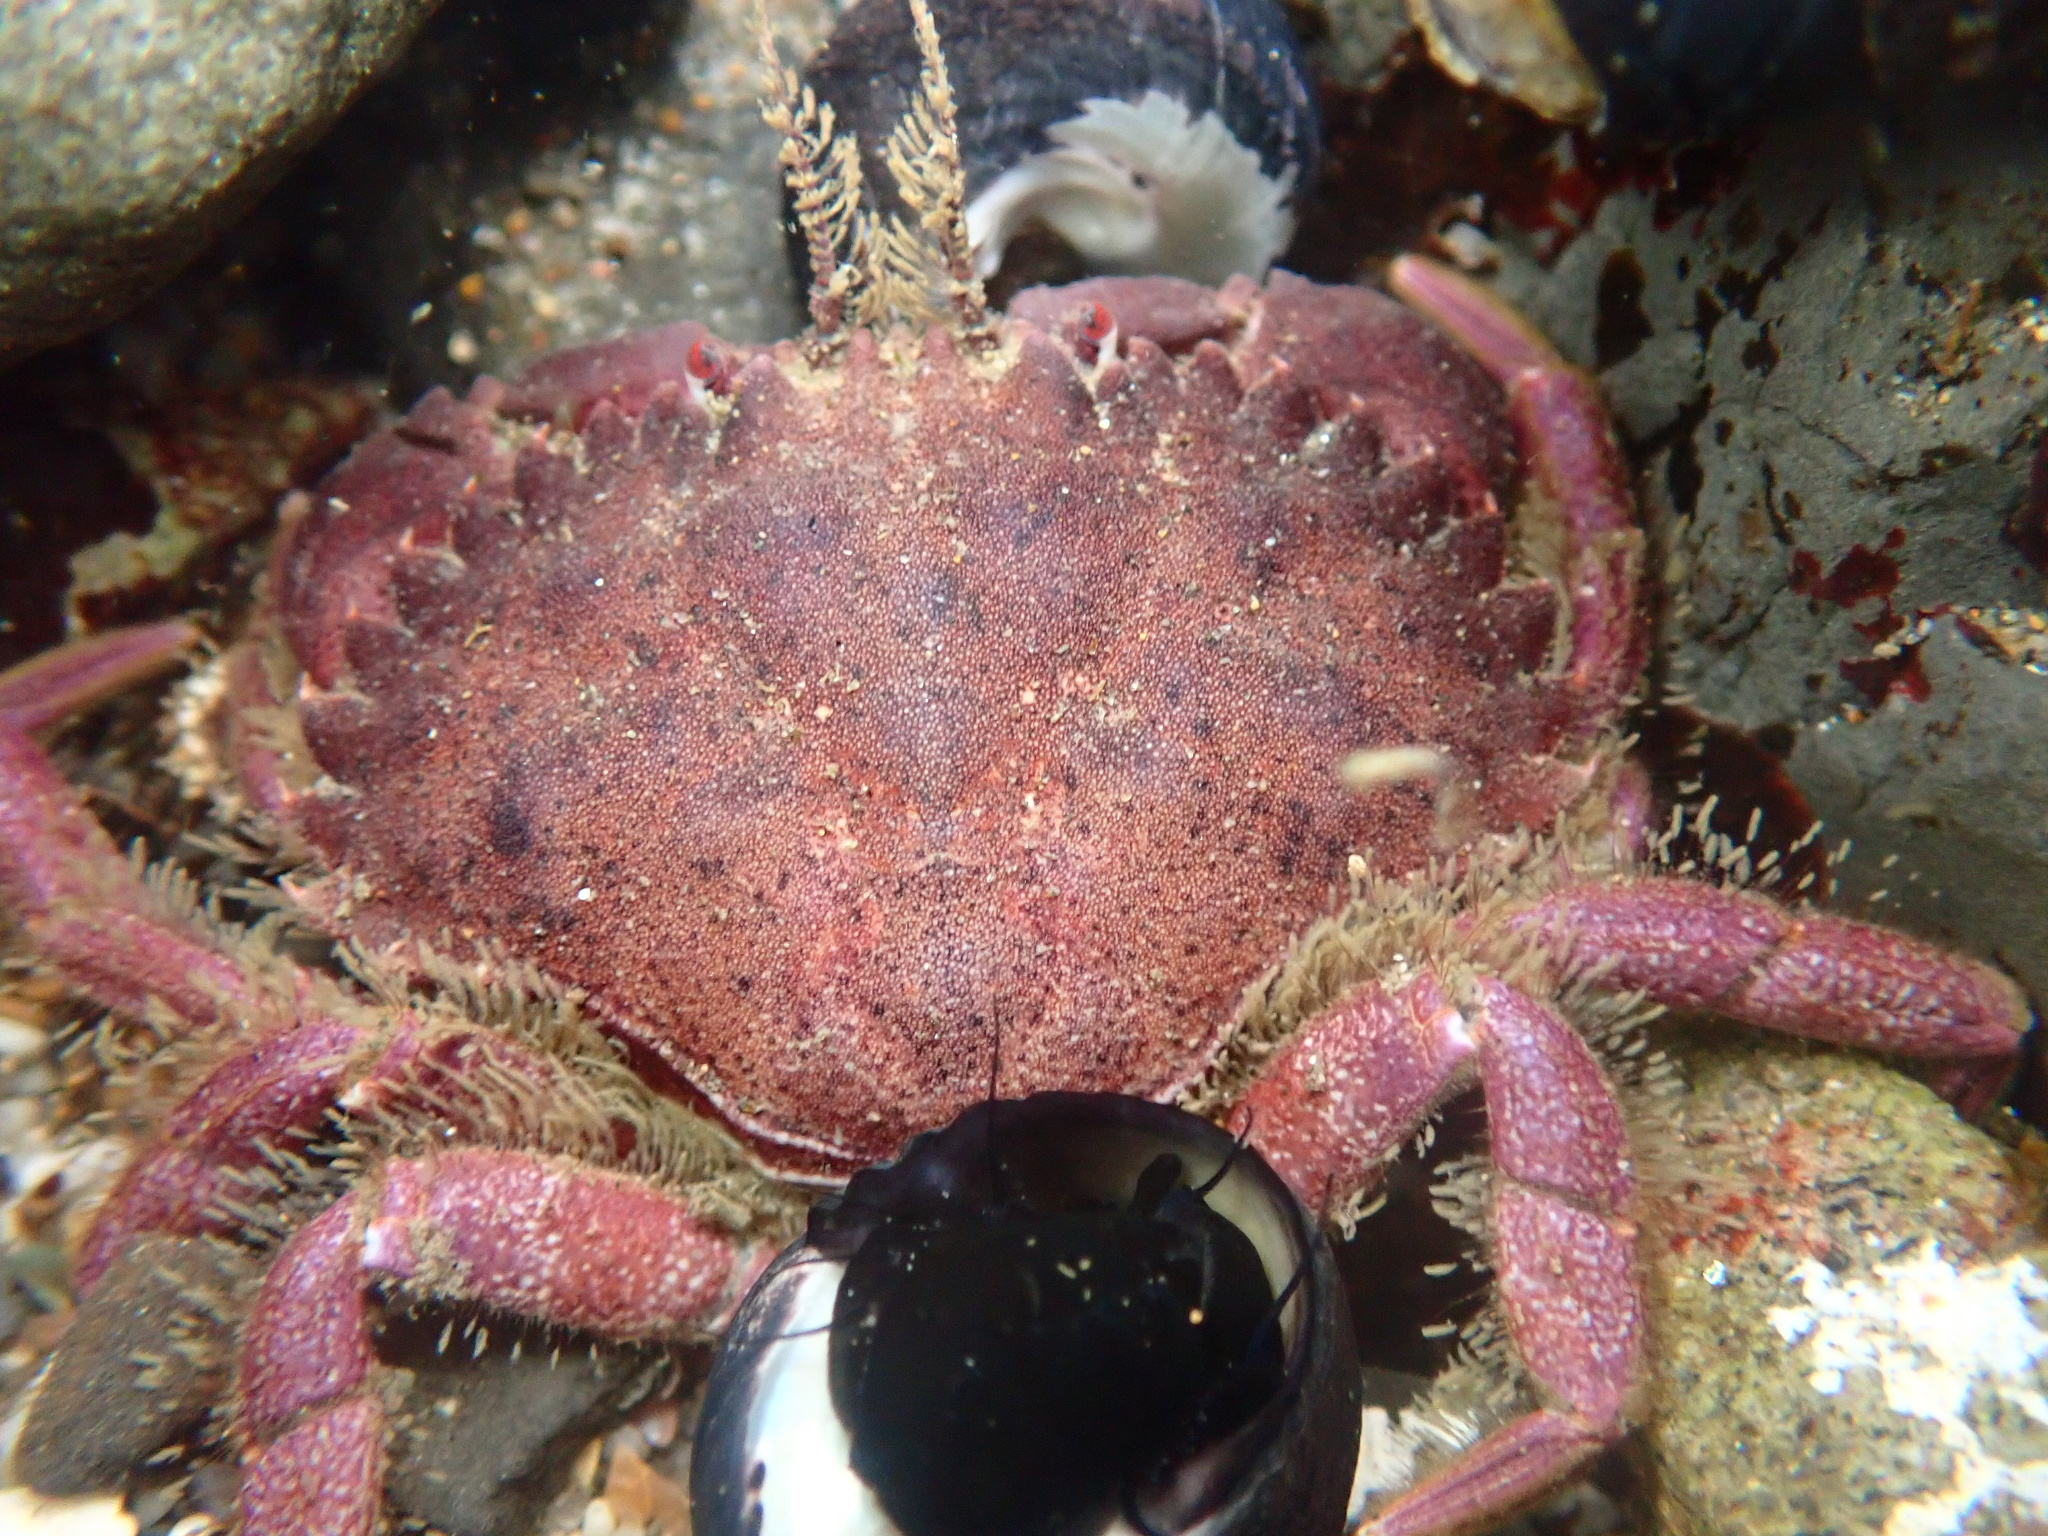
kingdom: Animalia
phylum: Arthropoda
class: Malacostraca
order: Decapoda
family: Cancridae
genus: Romaleon
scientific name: Romaleon antennarium
